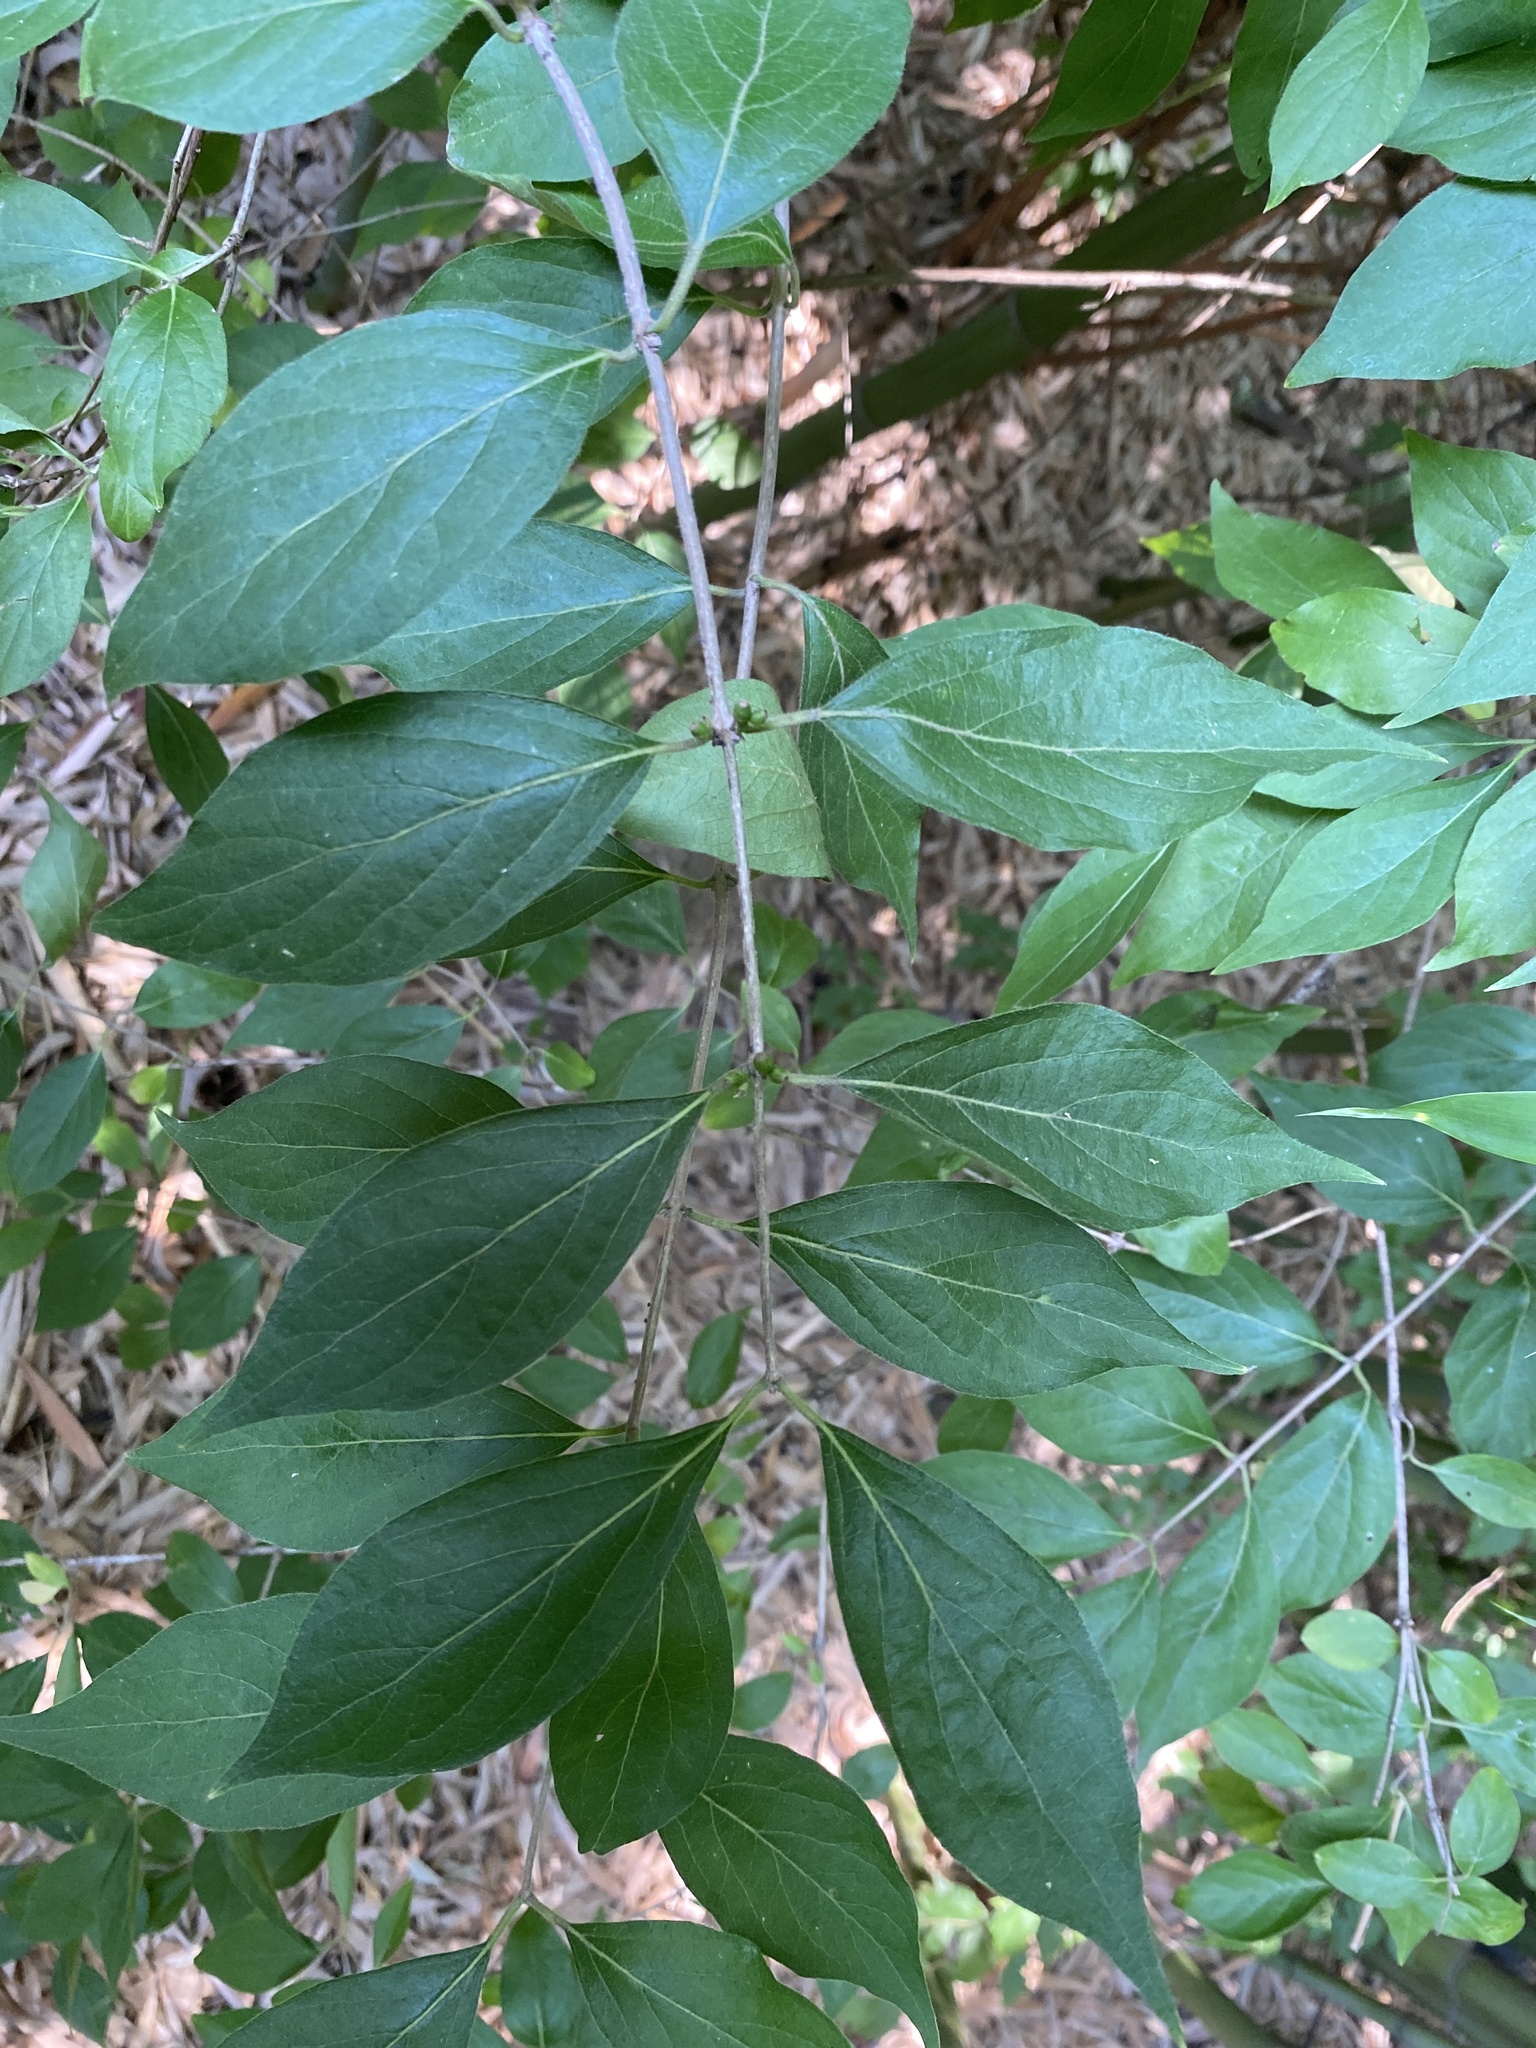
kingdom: Plantae
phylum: Tracheophyta
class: Magnoliopsida
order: Dipsacales
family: Caprifoliaceae
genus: Lonicera
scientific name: Lonicera maackii
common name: Amur honeysuckle
